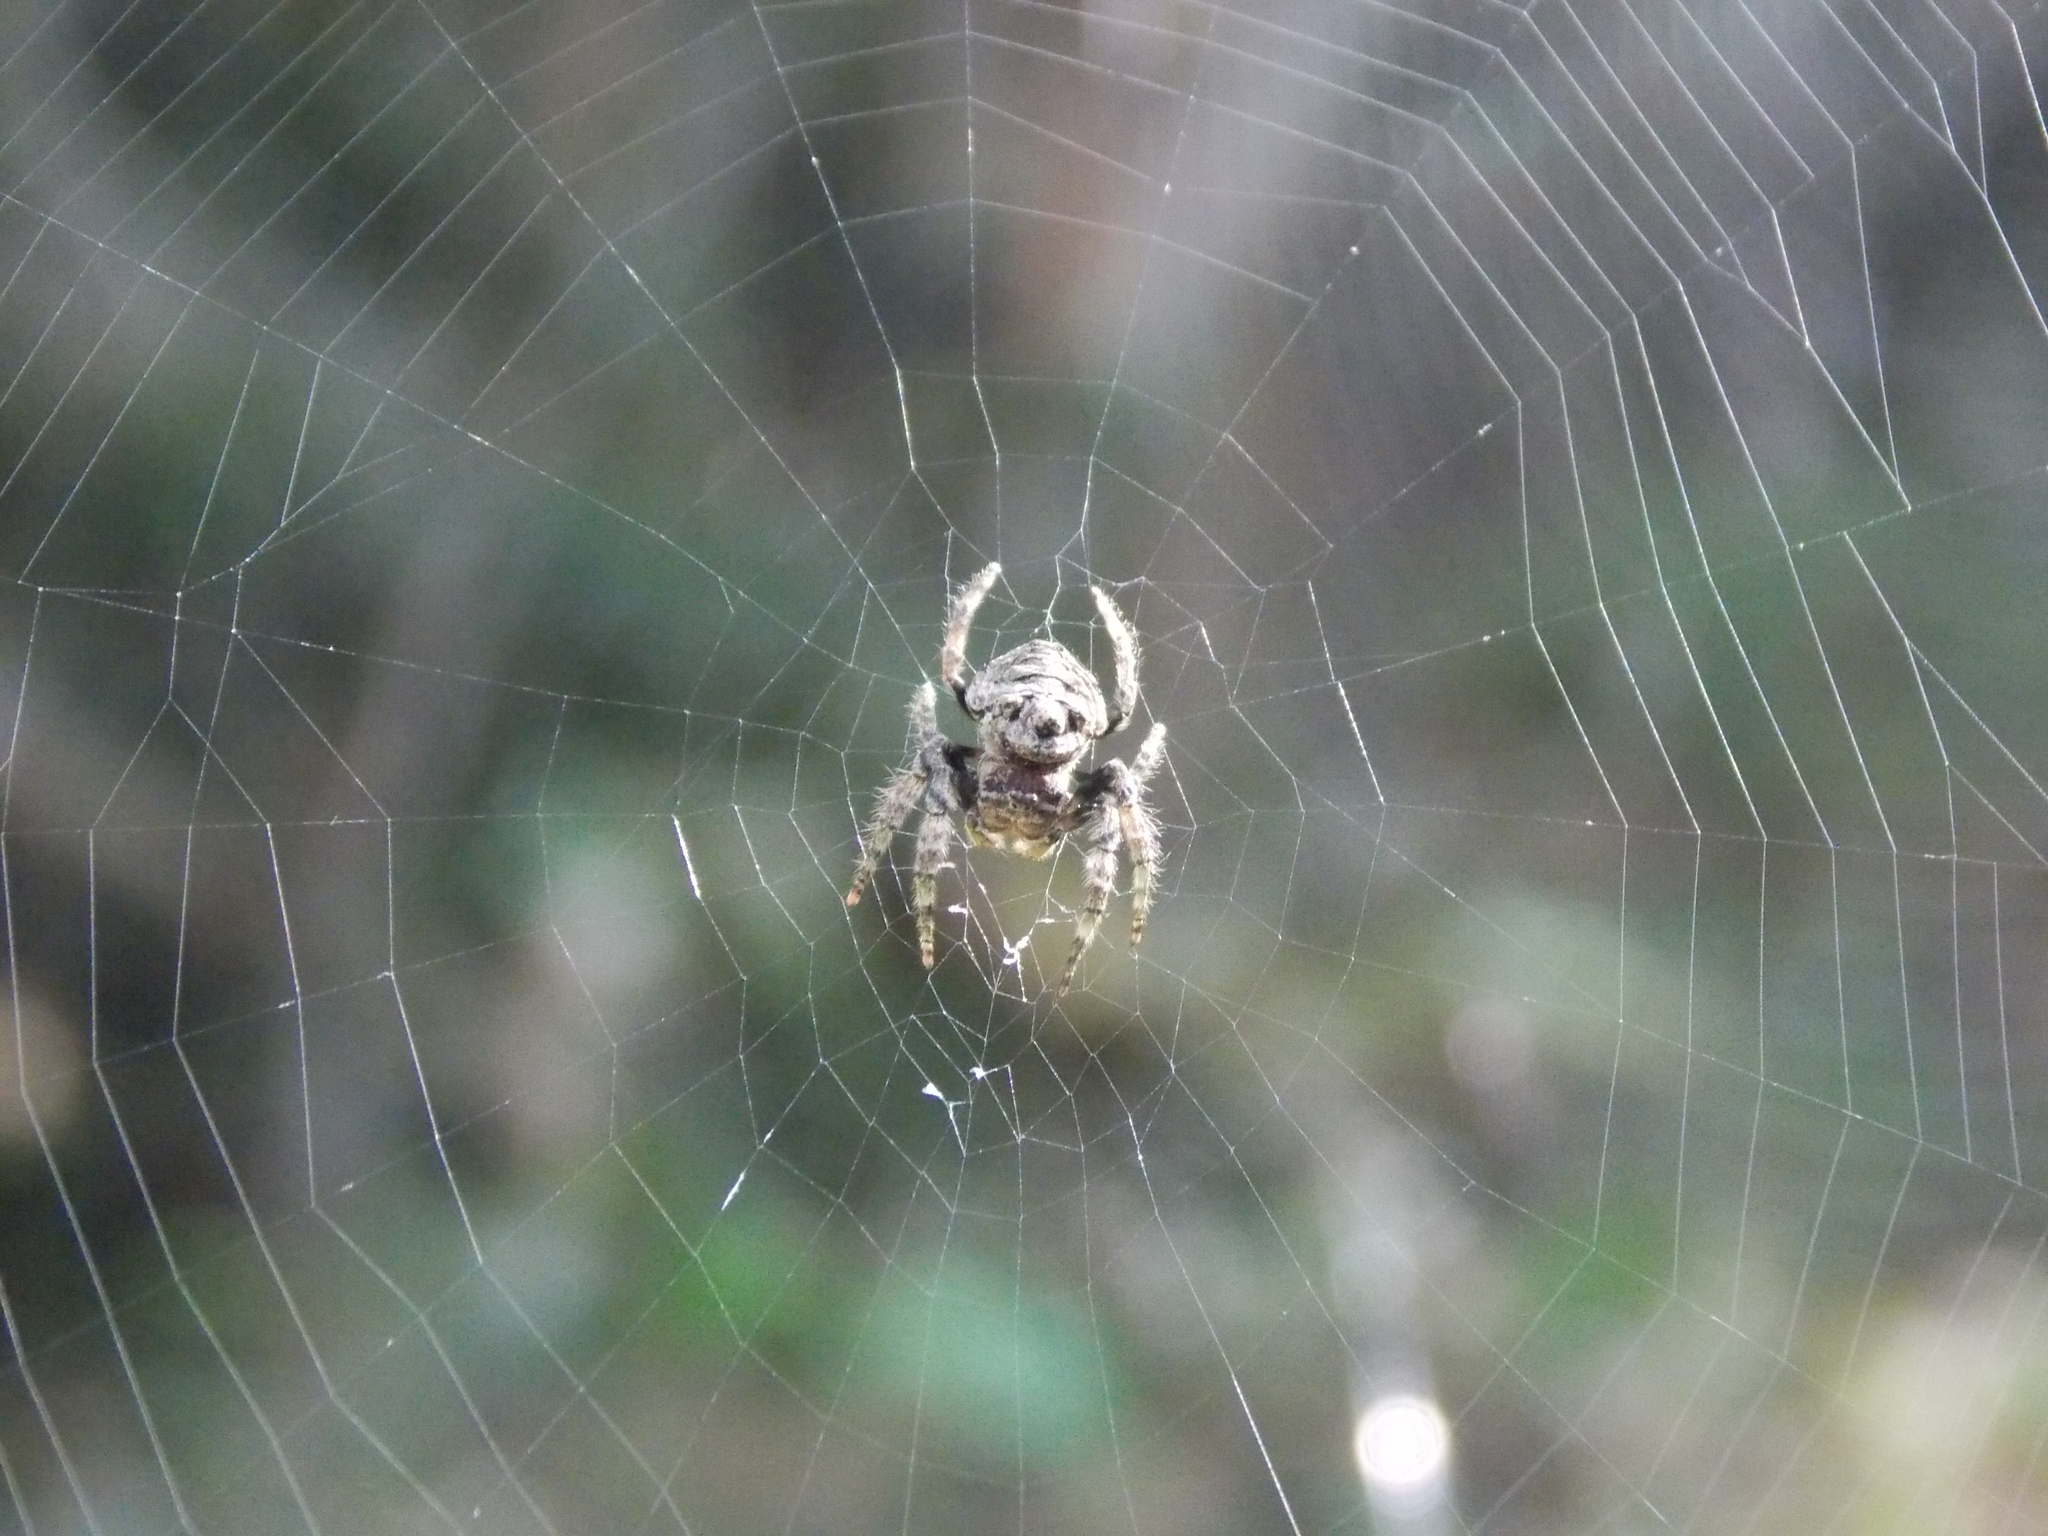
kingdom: Animalia
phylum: Arthropoda
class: Arachnida
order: Araneae
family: Araneidae
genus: Caerostris
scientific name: Caerostris sexcuspidata
